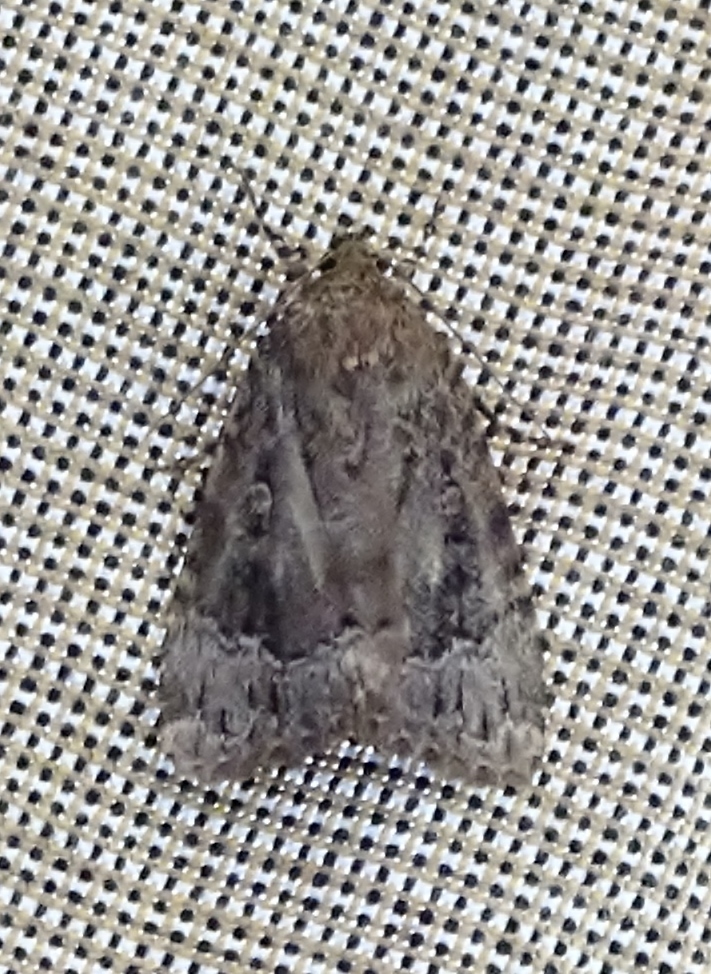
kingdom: Animalia
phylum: Arthropoda
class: Insecta
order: Lepidoptera
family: Noctuidae
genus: Amphipyra
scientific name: Amphipyra pyramidoides
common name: American copper underwing
